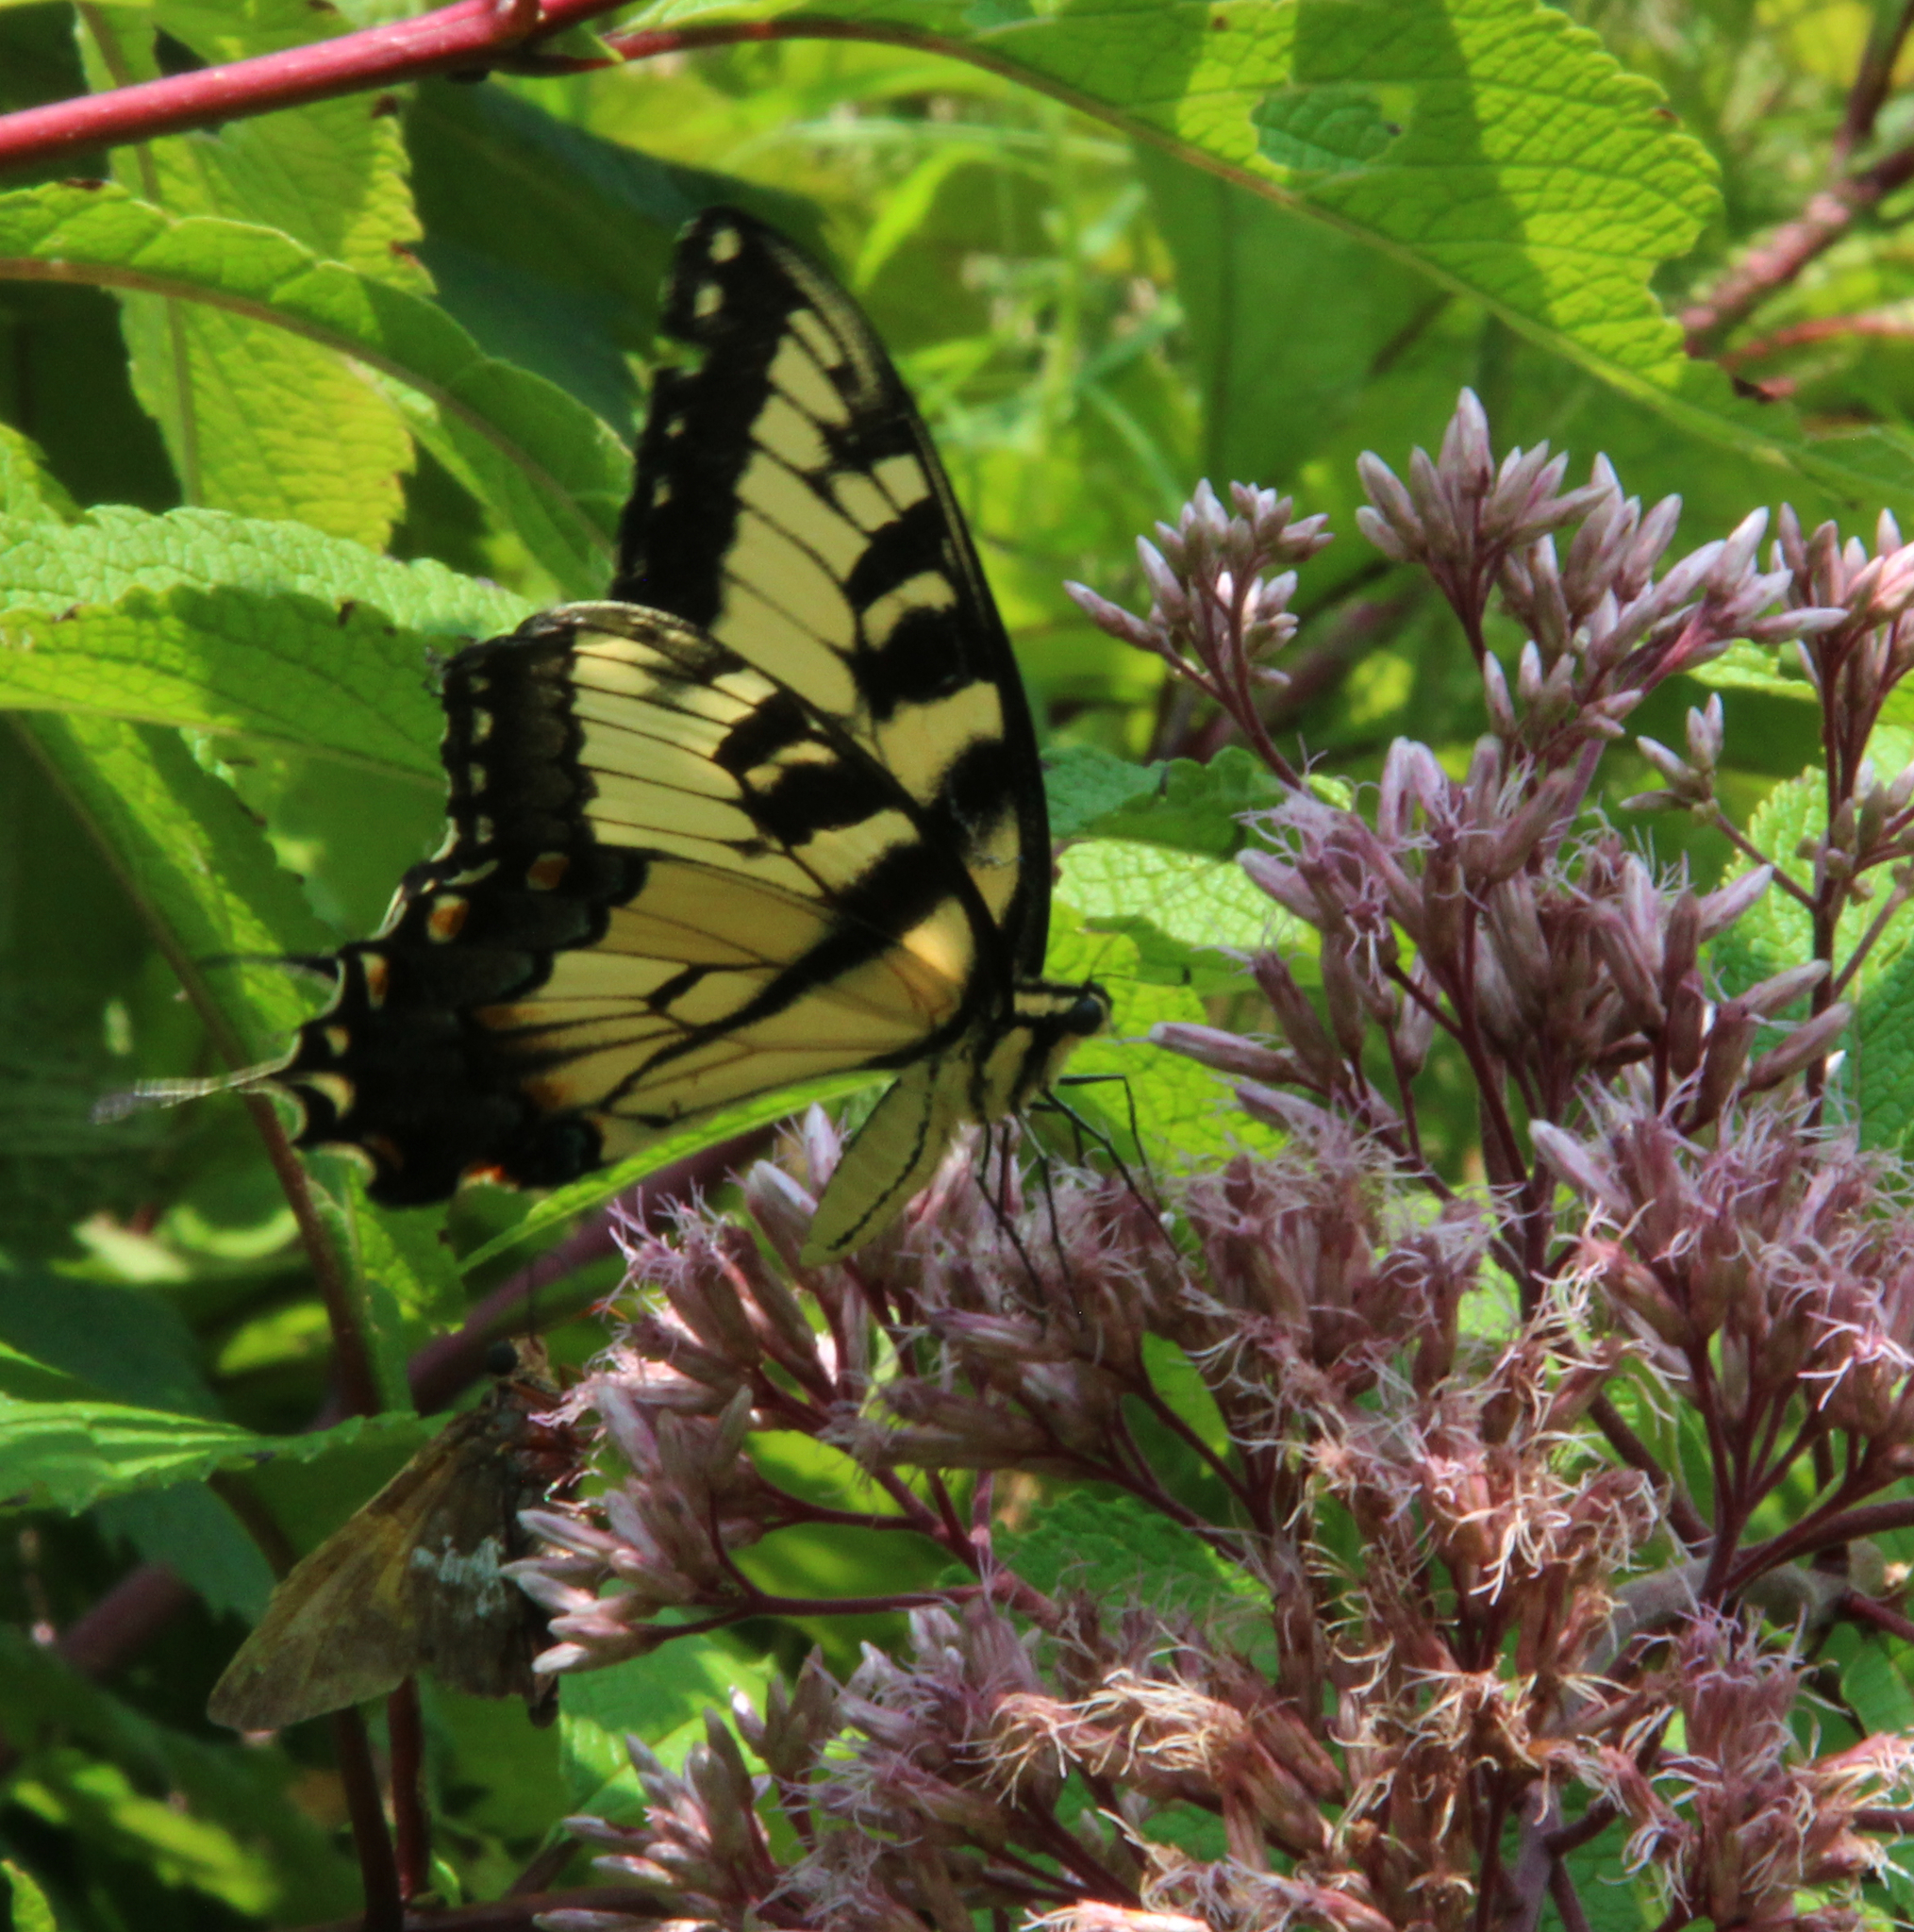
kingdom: Animalia
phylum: Arthropoda
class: Insecta
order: Lepidoptera
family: Papilionidae
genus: Papilio
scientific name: Papilio glaucus
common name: Tiger swallowtail
